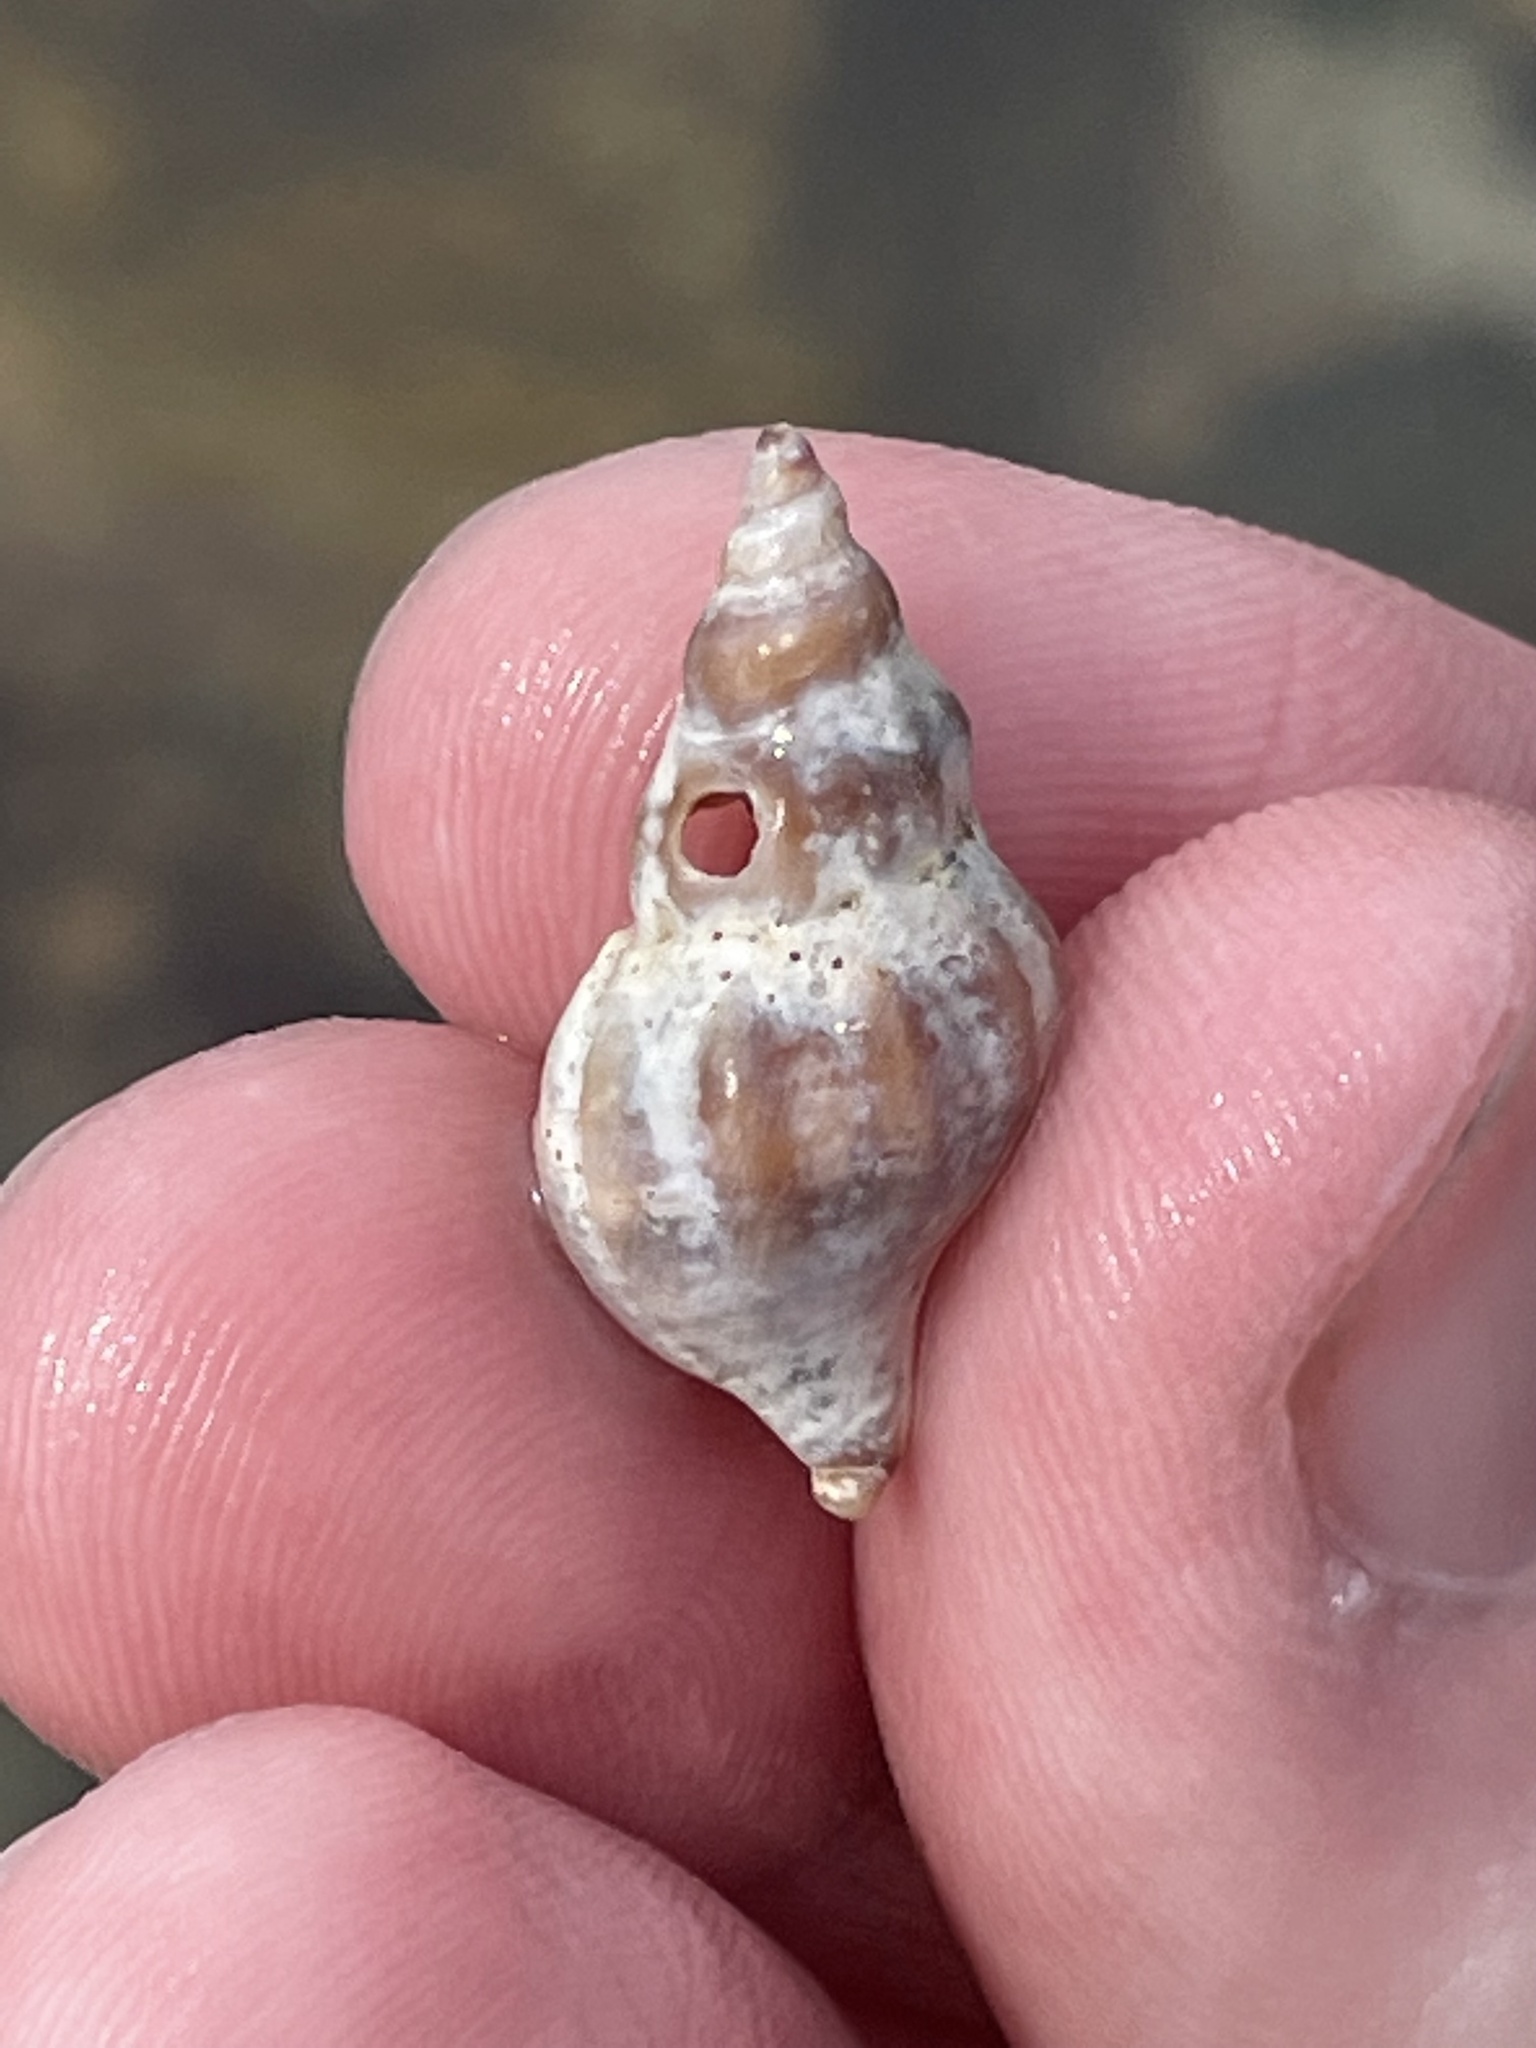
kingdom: Animalia
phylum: Mollusca
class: Gastropoda
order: Neogastropoda
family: Muricidae
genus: Urosalpinx
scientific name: Urosalpinx cinerea
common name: American sting winkle
